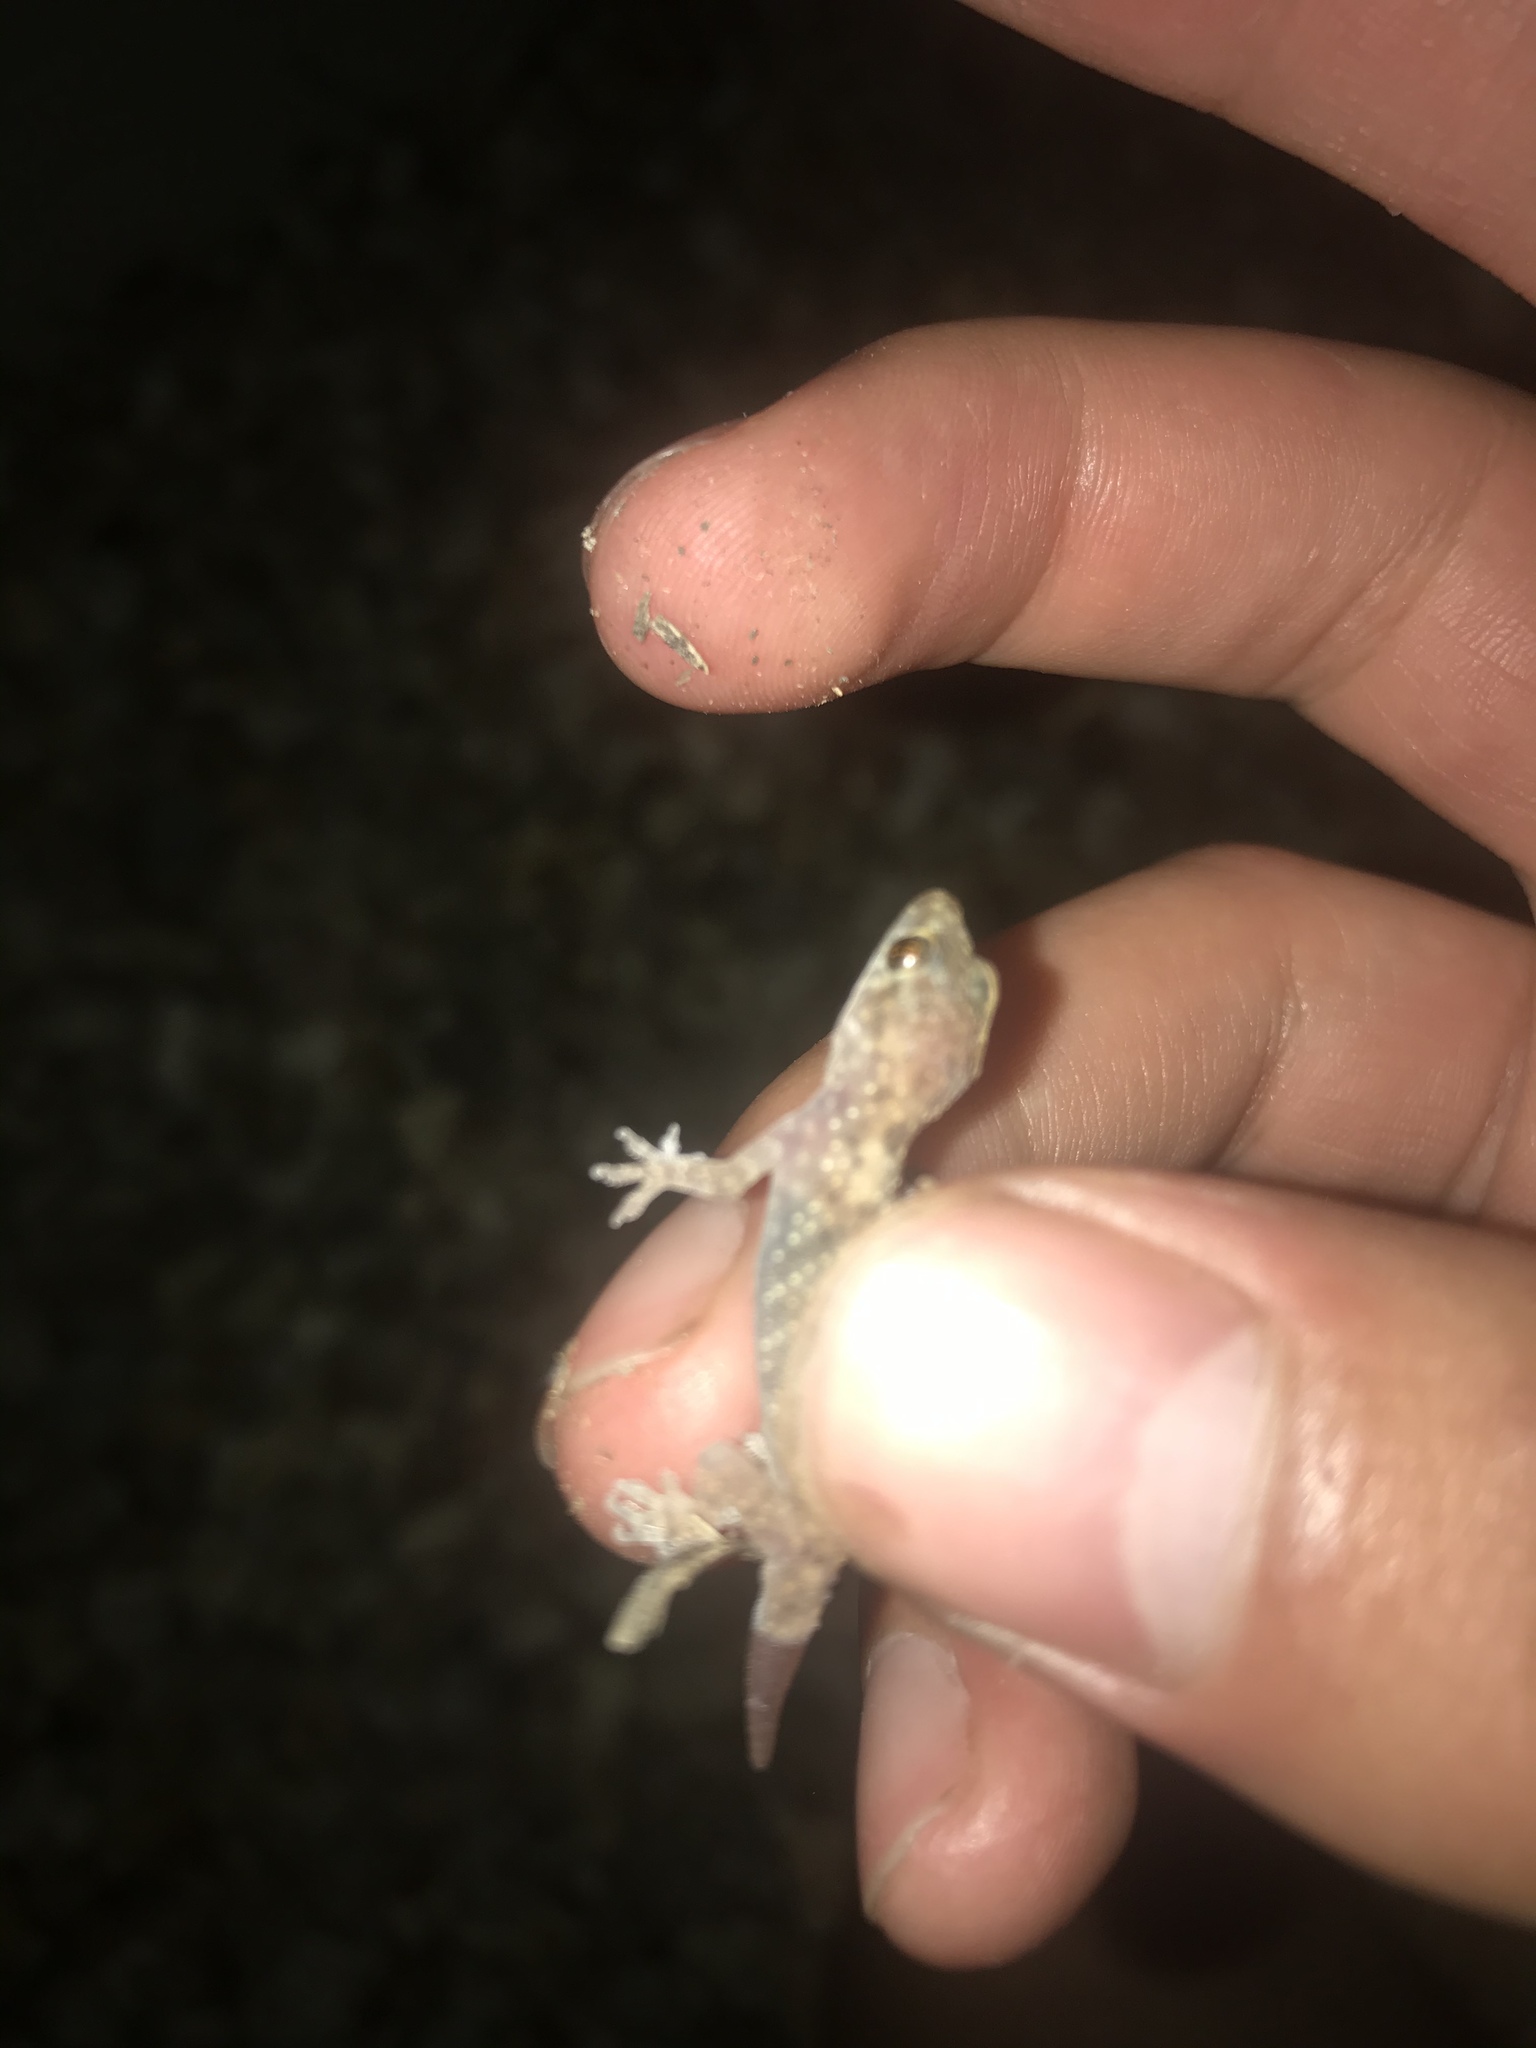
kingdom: Animalia
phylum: Chordata
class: Squamata
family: Gekkonidae
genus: Hemidactylus
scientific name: Hemidactylus turcicus
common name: Turkish gecko
